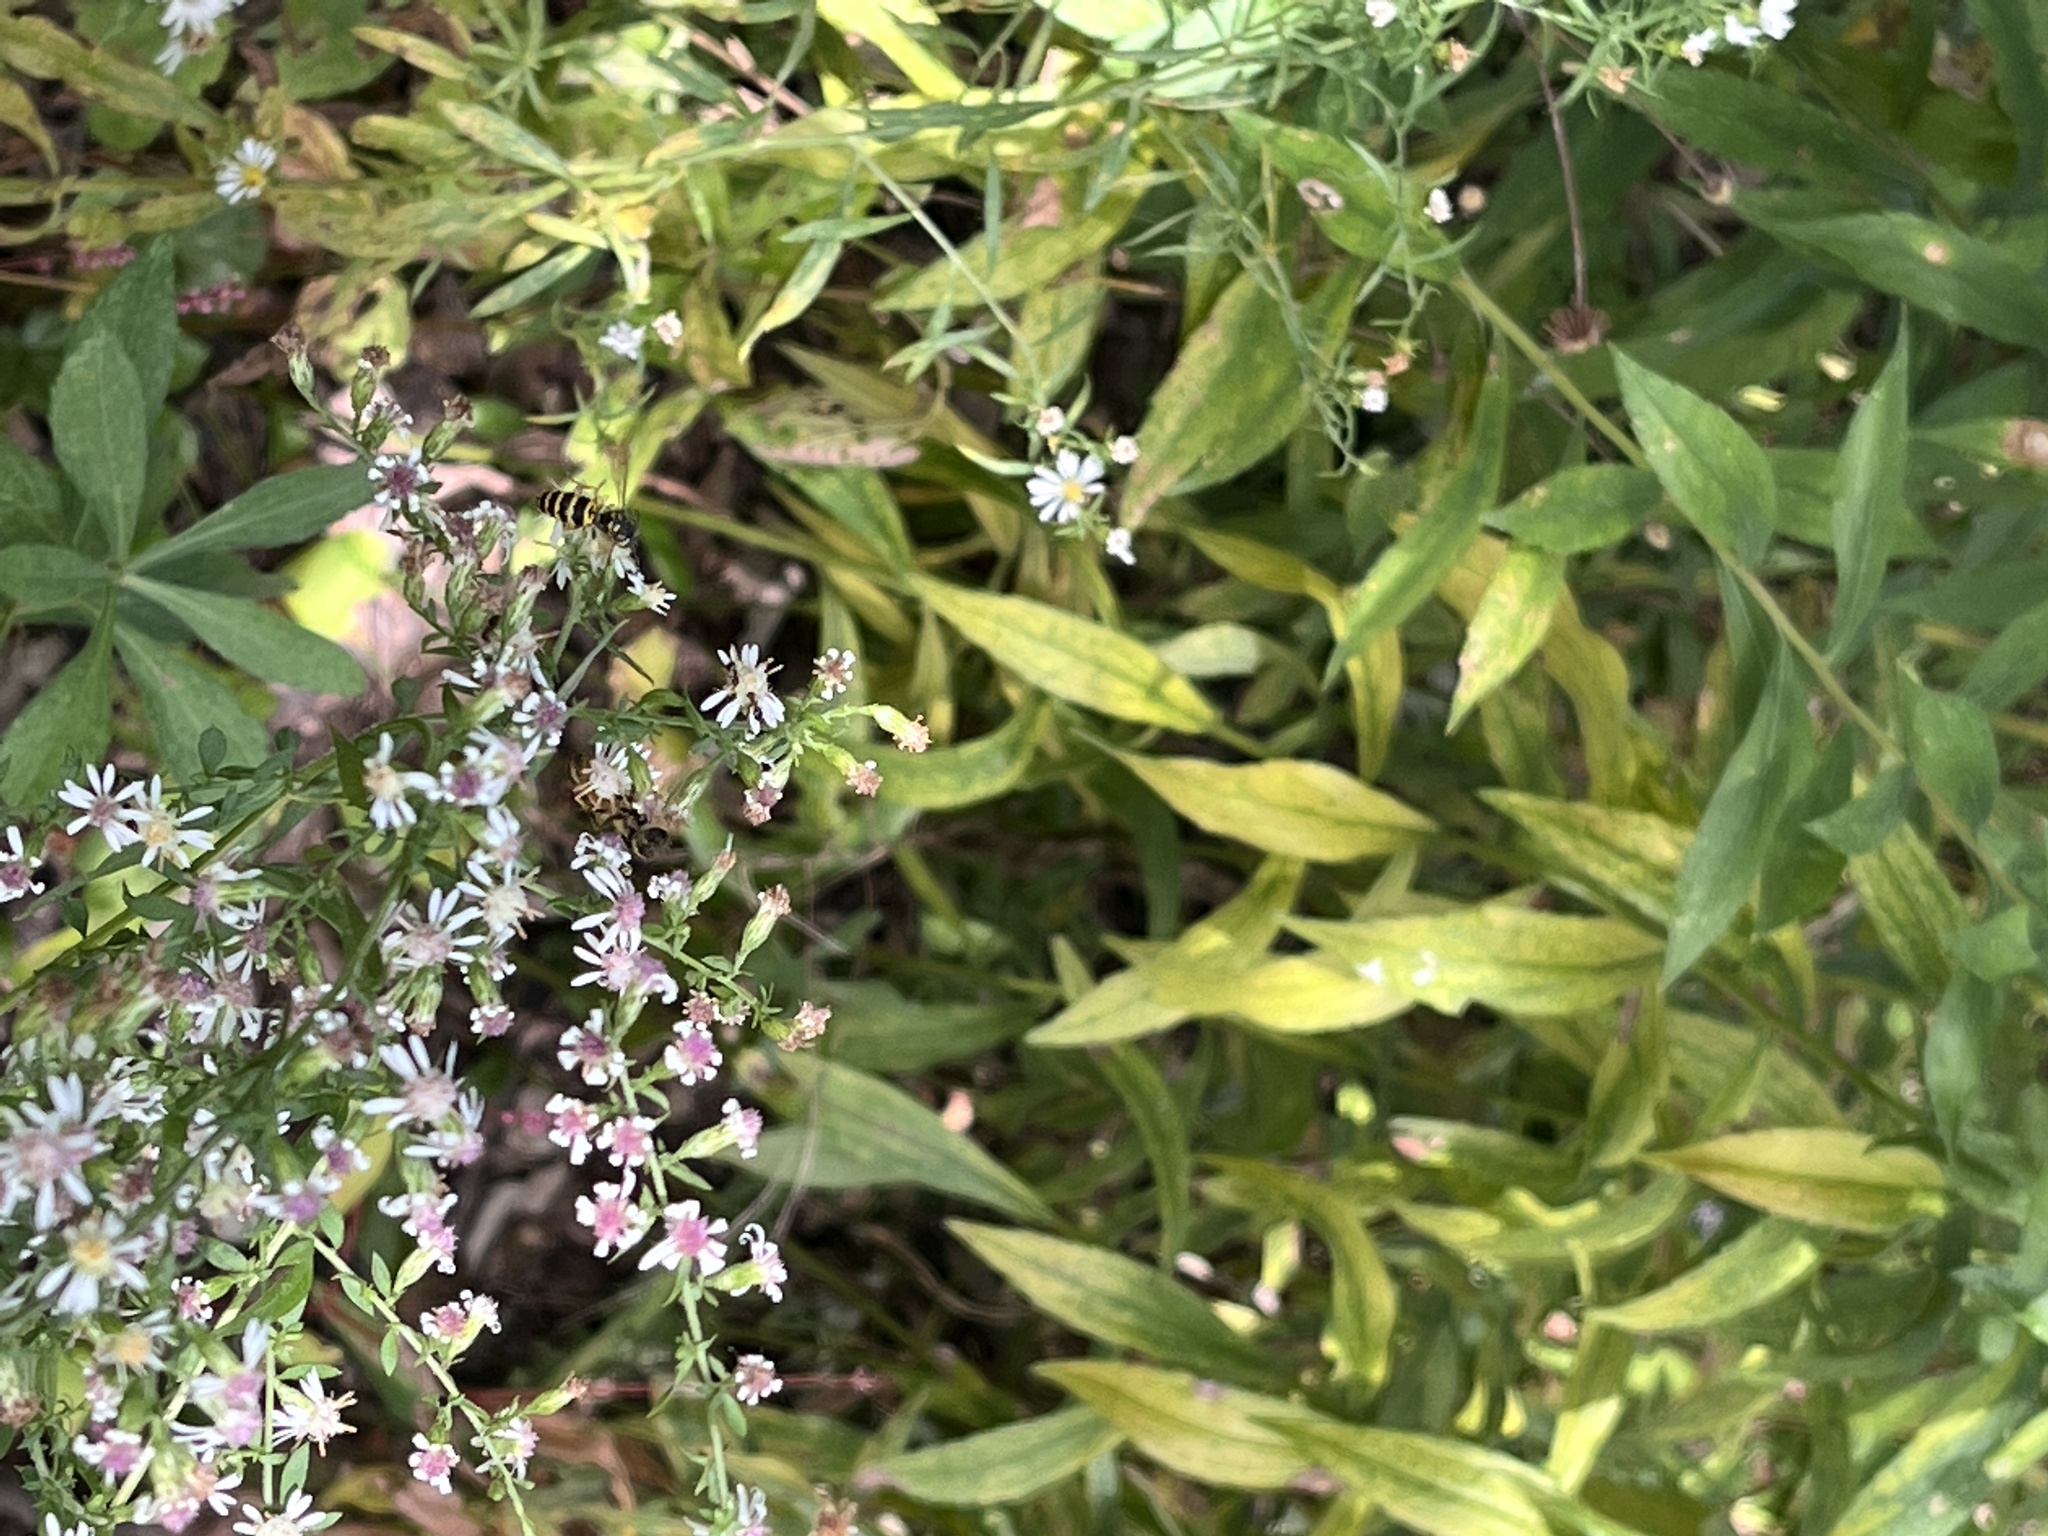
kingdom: Animalia
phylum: Arthropoda
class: Insecta
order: Hymenoptera
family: Vespidae
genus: Vespula
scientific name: Vespula maculifrons
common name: Eastern yellowjacket
